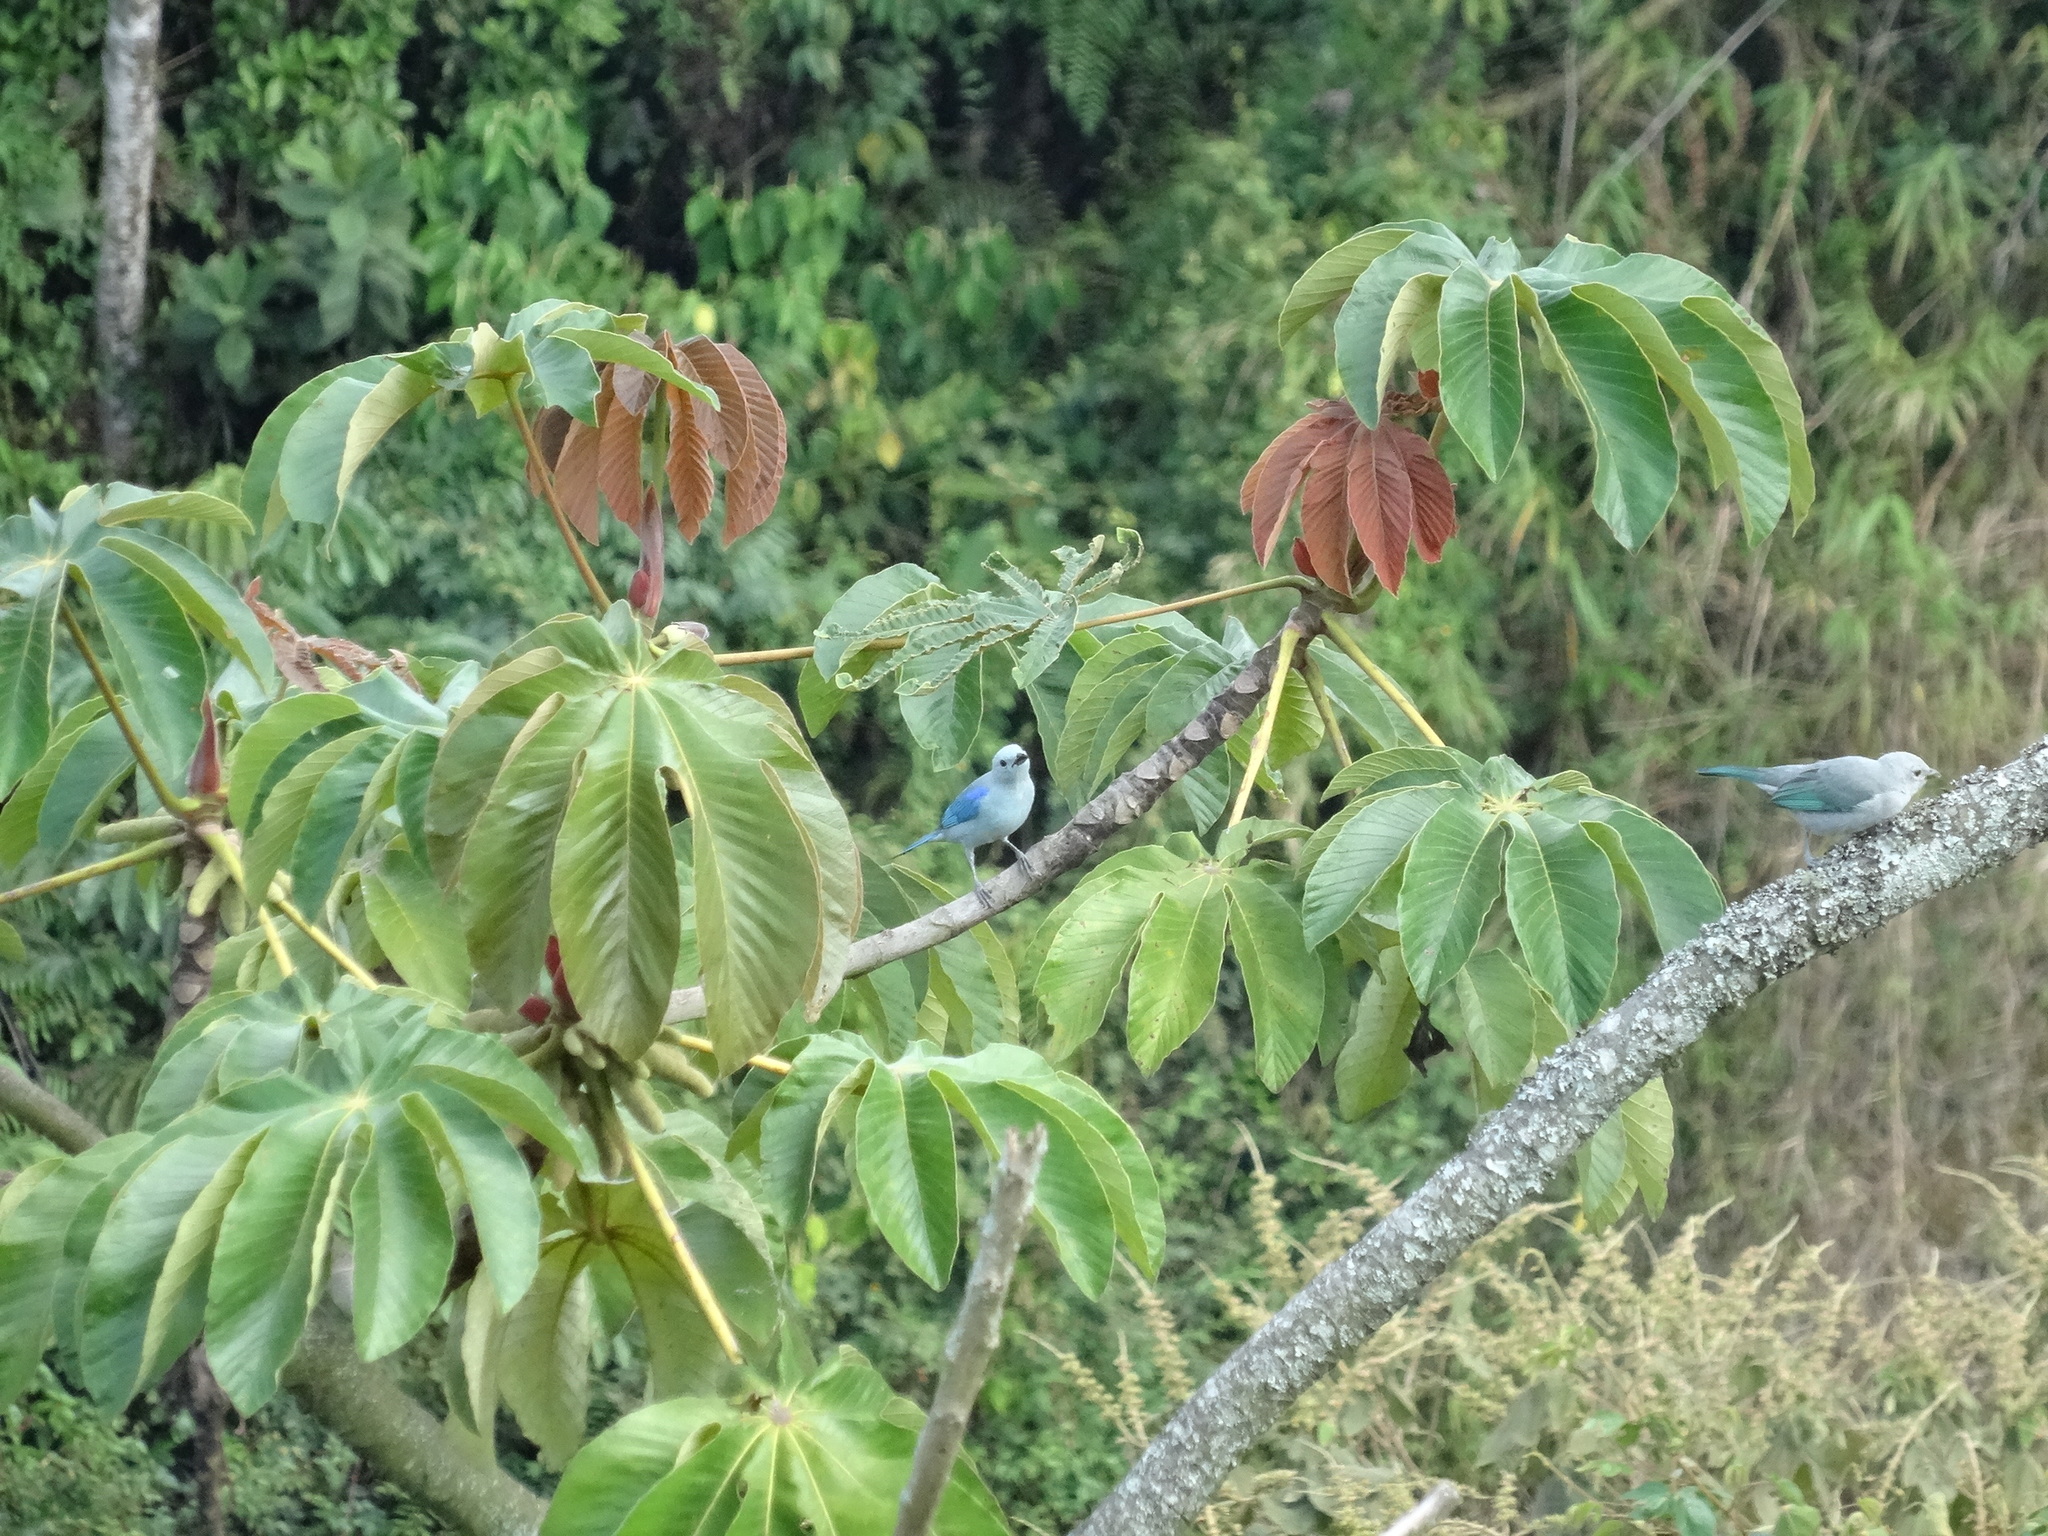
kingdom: Animalia
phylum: Chordata
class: Aves
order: Passeriformes
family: Thraupidae
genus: Thraupis
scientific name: Thraupis episcopus
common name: Blue-grey tanager
